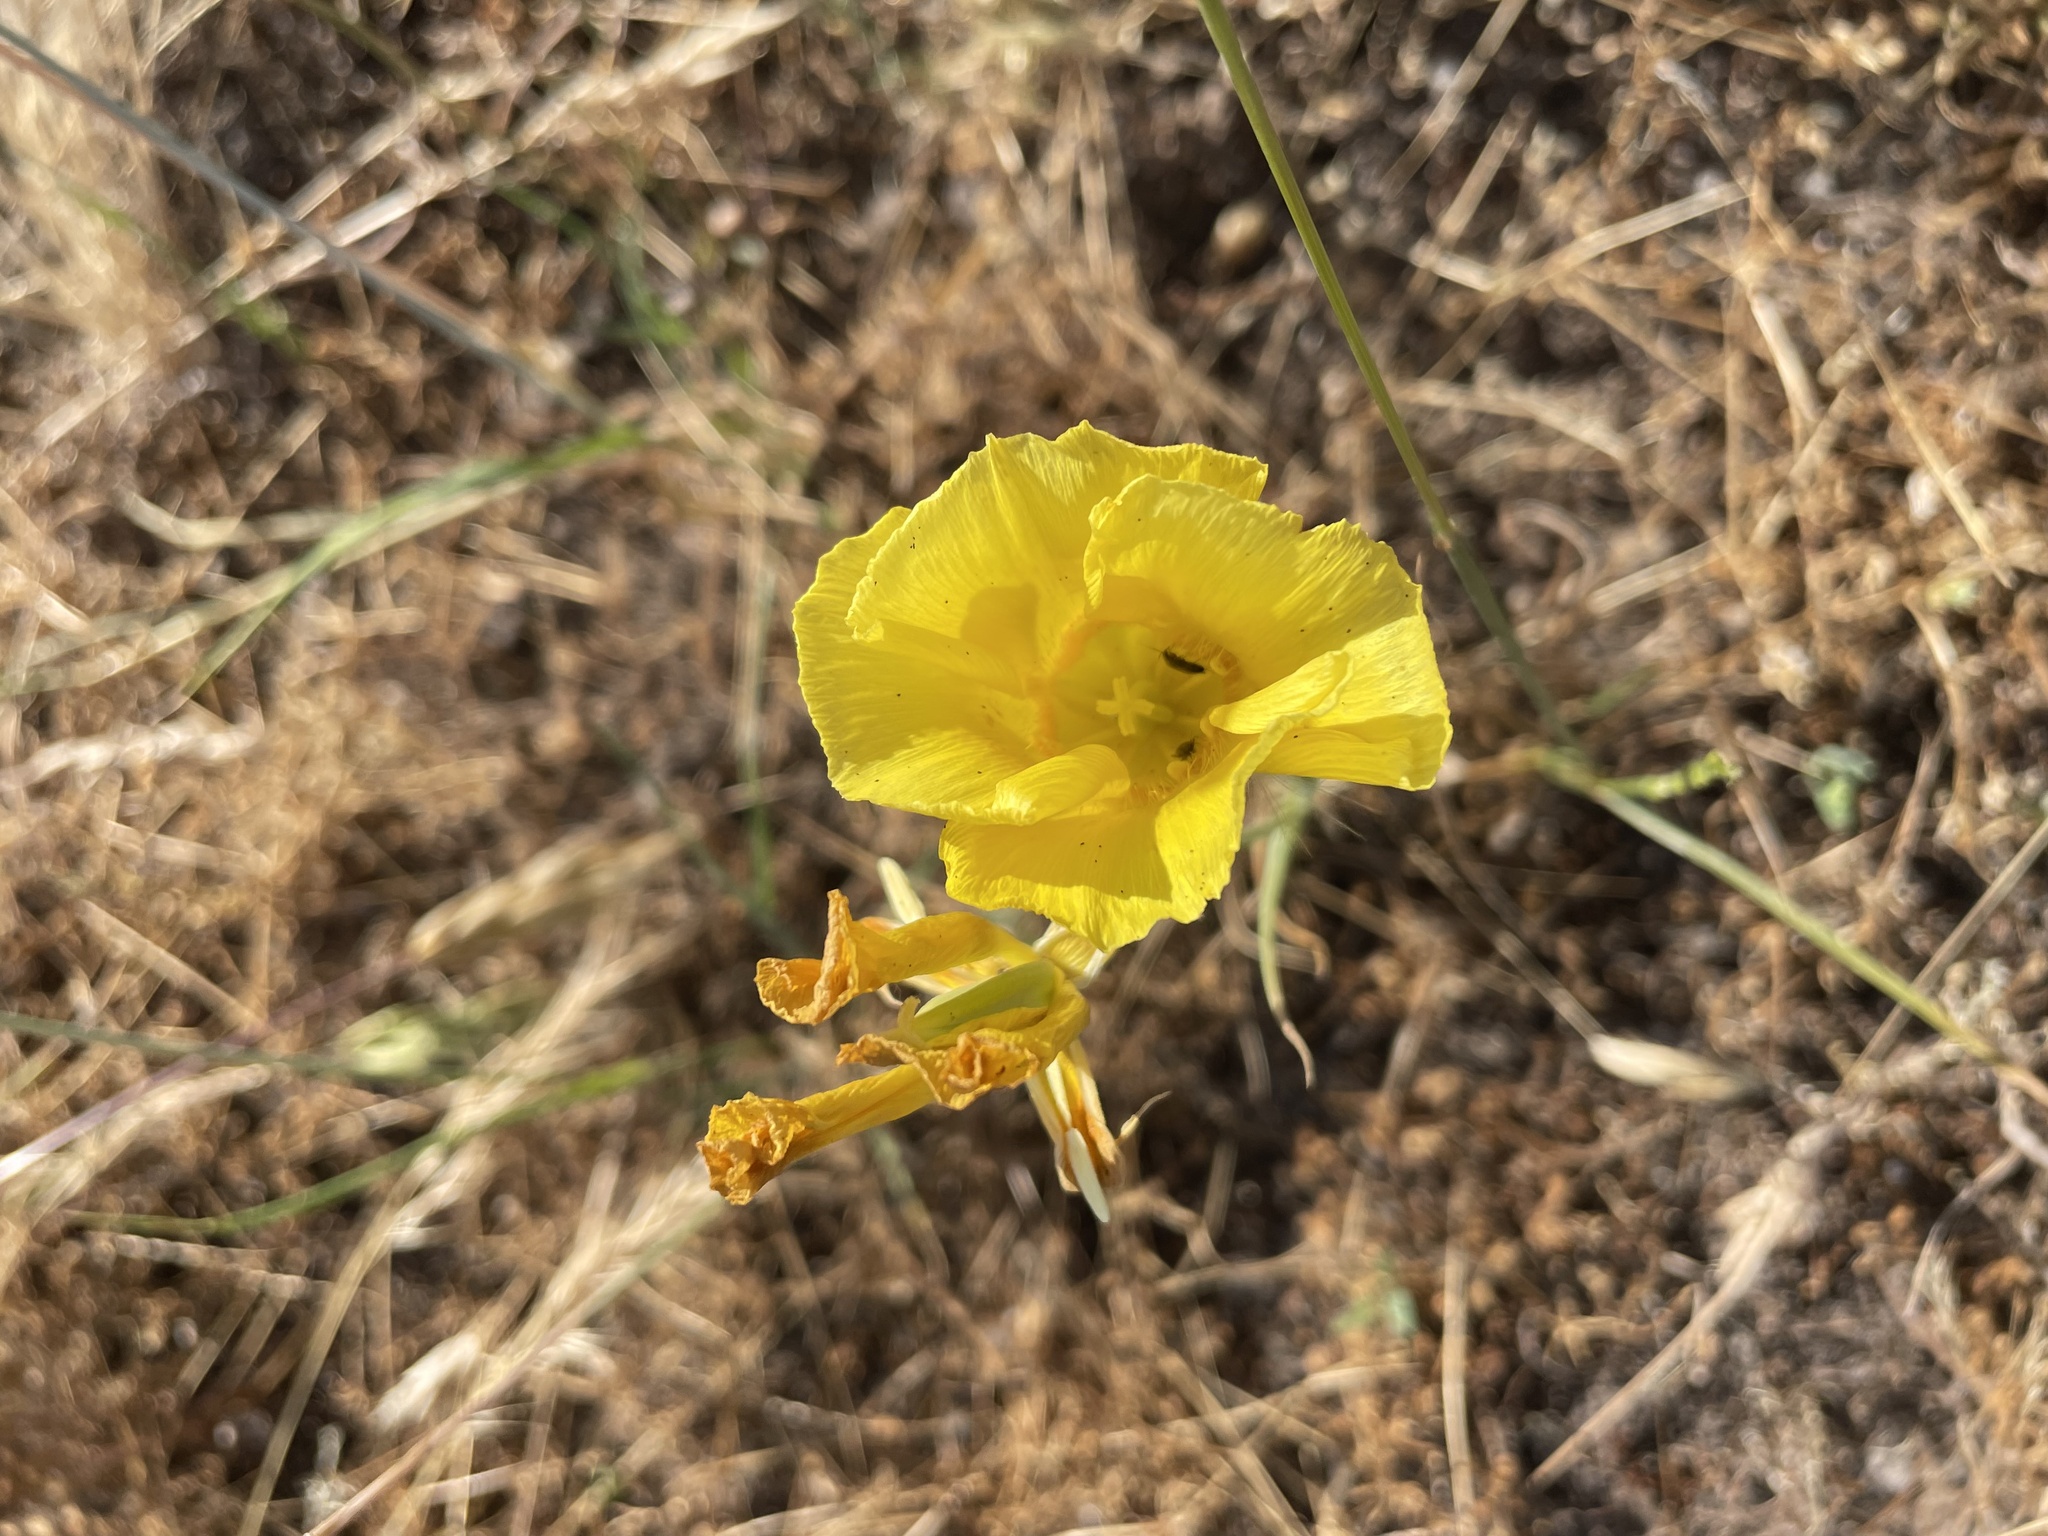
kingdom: Plantae
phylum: Tracheophyta
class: Liliopsida
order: Liliales
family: Liliaceae
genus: Calochortus
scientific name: Calochortus luteus
